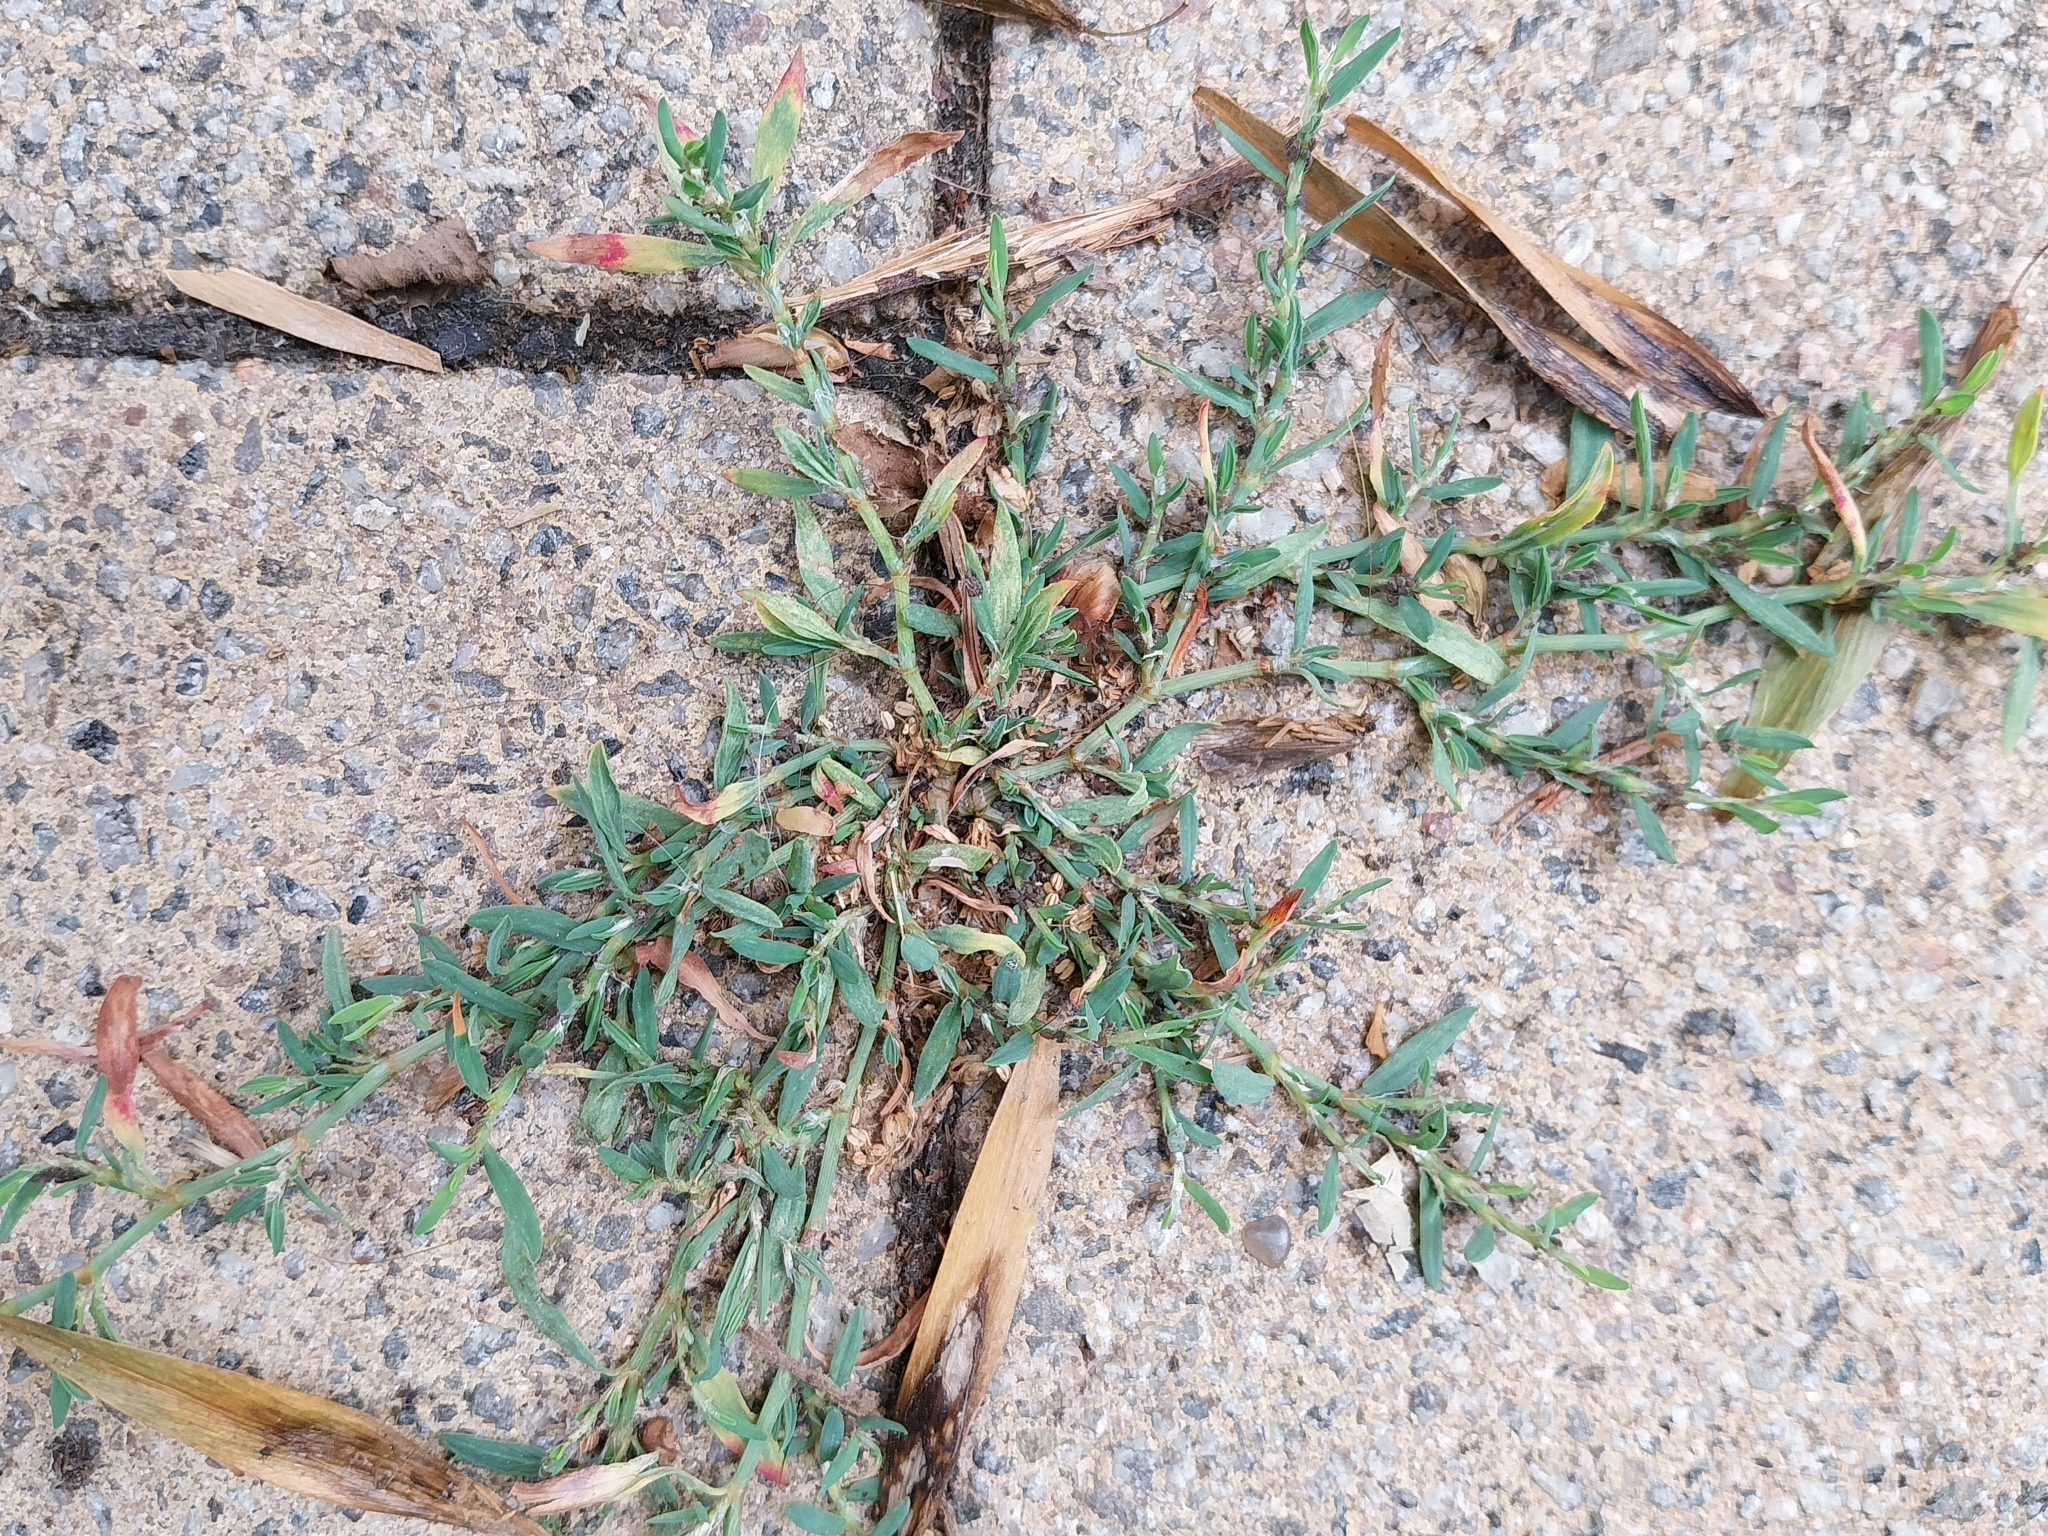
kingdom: Plantae
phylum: Tracheophyta
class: Magnoliopsida
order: Caryophyllales
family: Polygonaceae
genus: Polygonum
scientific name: Polygonum aviculare
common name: Prostrate knotweed
